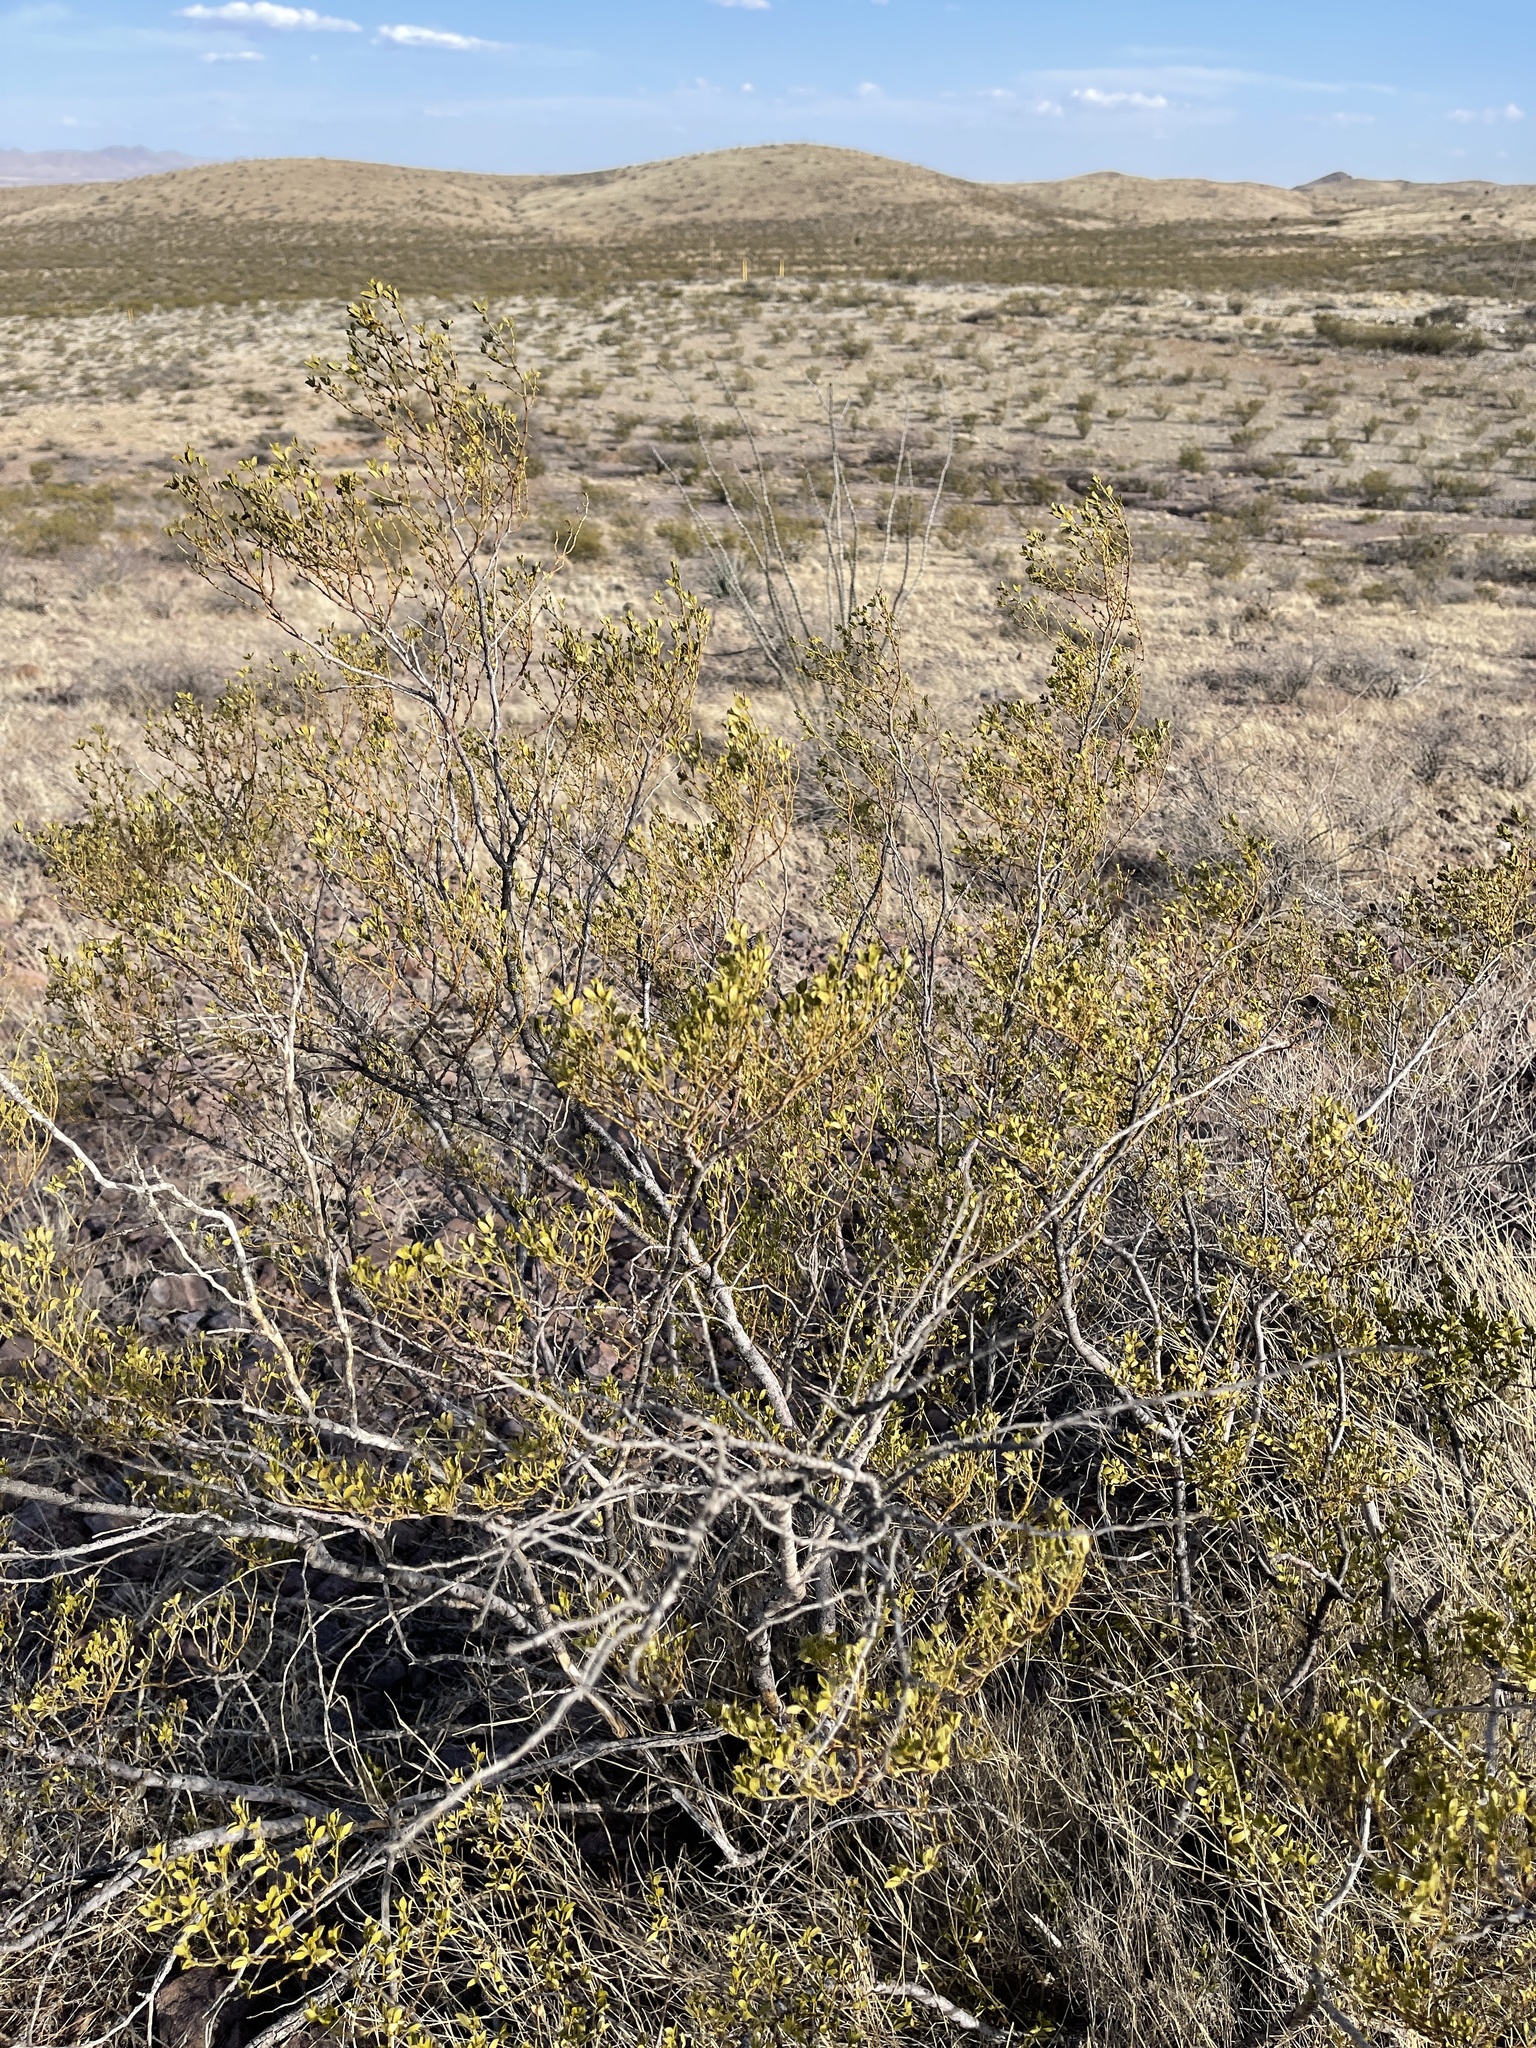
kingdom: Plantae
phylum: Tracheophyta
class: Magnoliopsida
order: Zygophyllales
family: Zygophyllaceae
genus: Larrea
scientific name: Larrea tridentata
